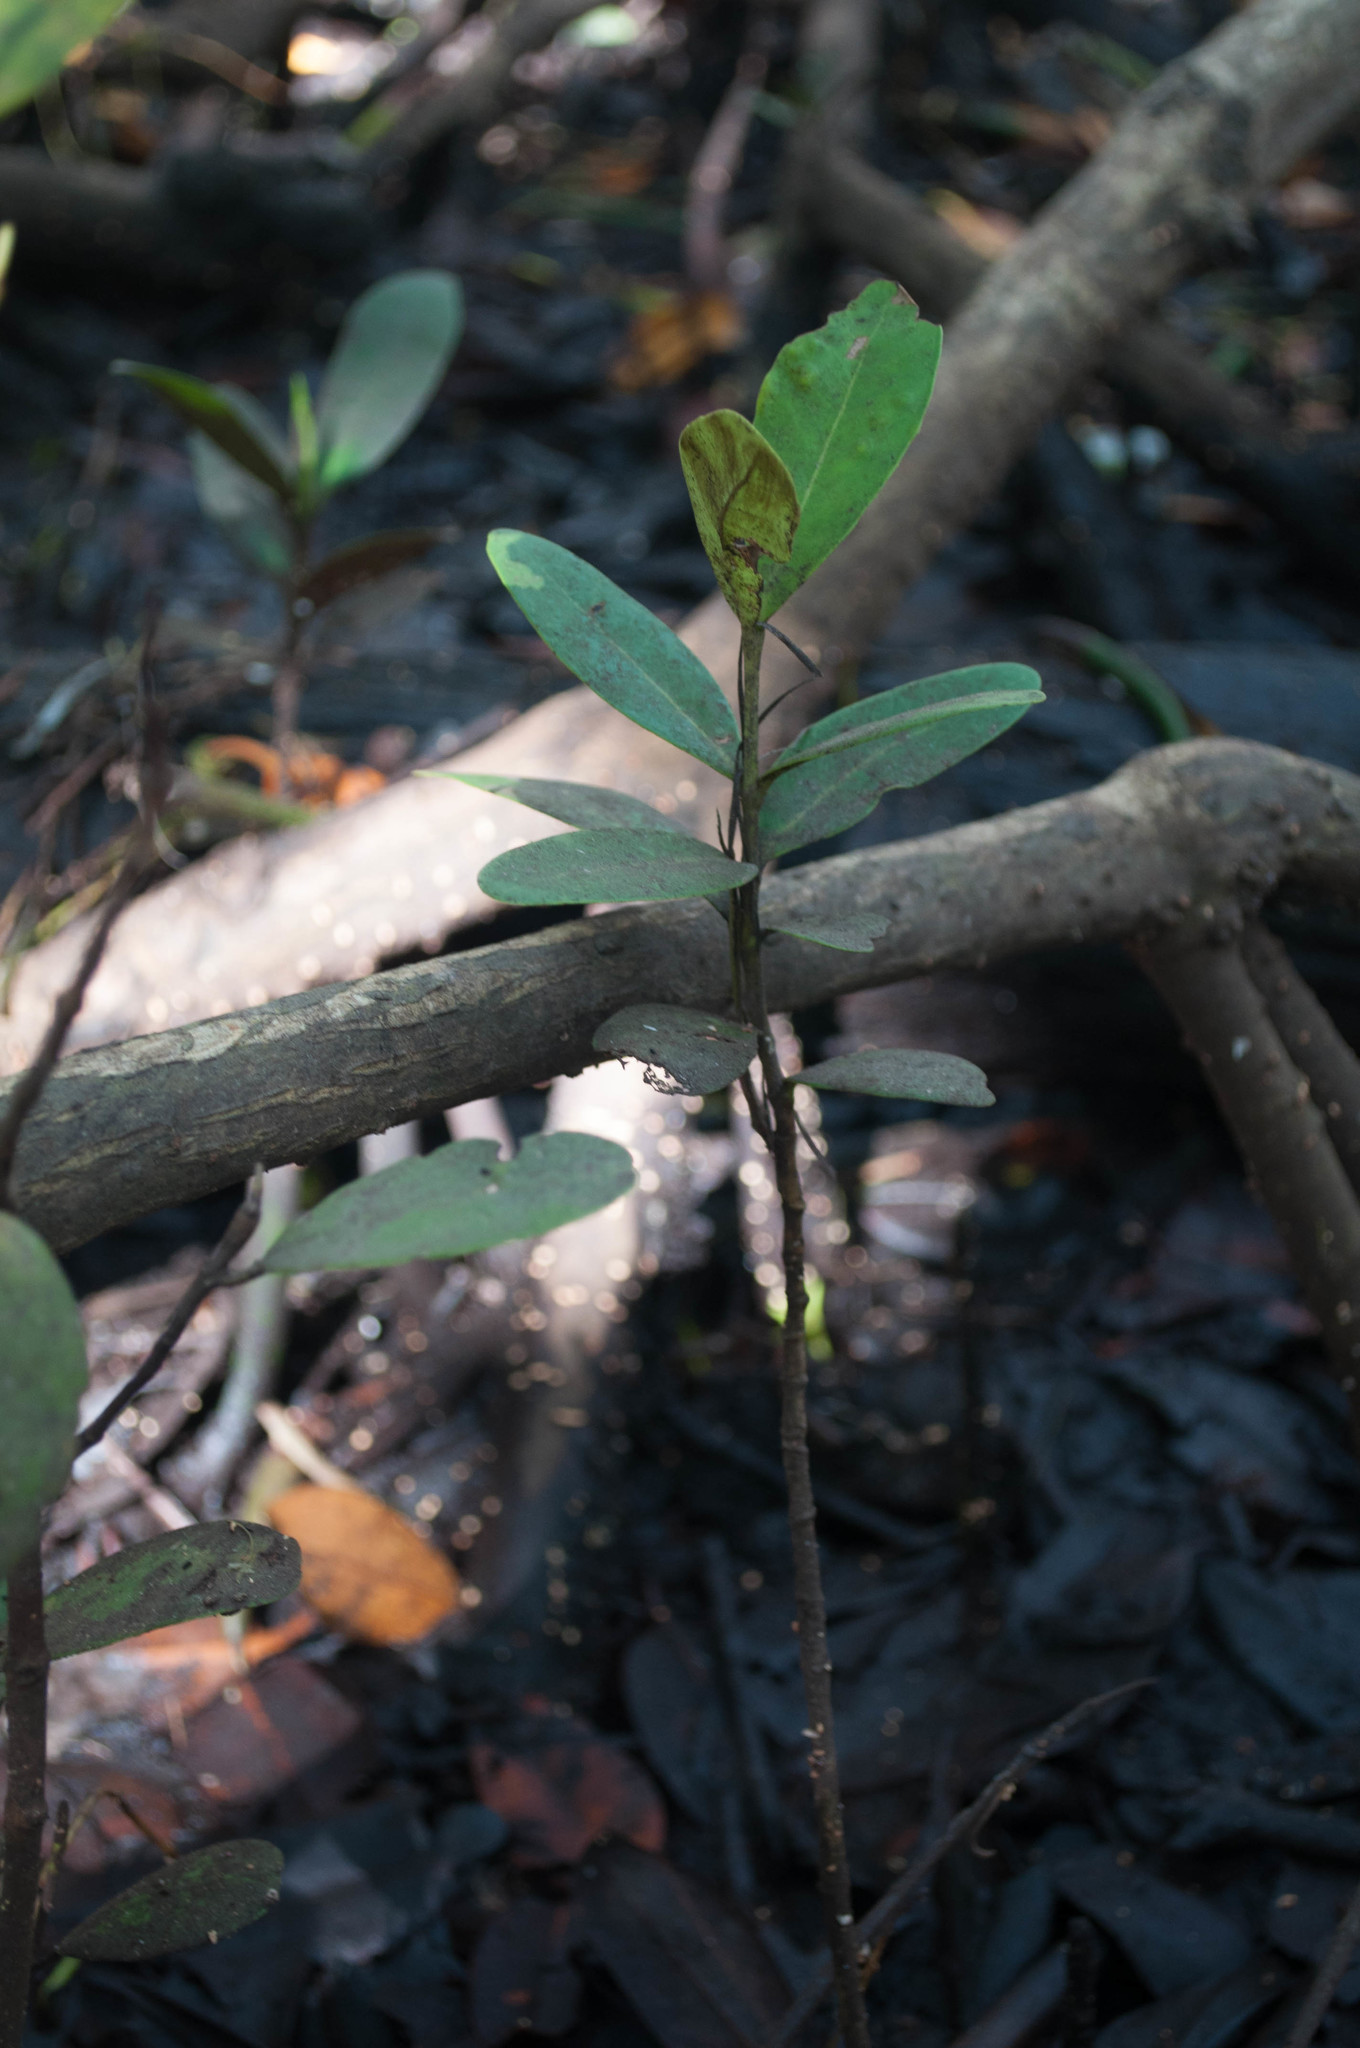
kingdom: Plantae
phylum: Tracheophyta
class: Magnoliopsida
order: Lamiales
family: Acanthaceae
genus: Avicennia
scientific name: Avicennia germinans
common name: Black mangrove
